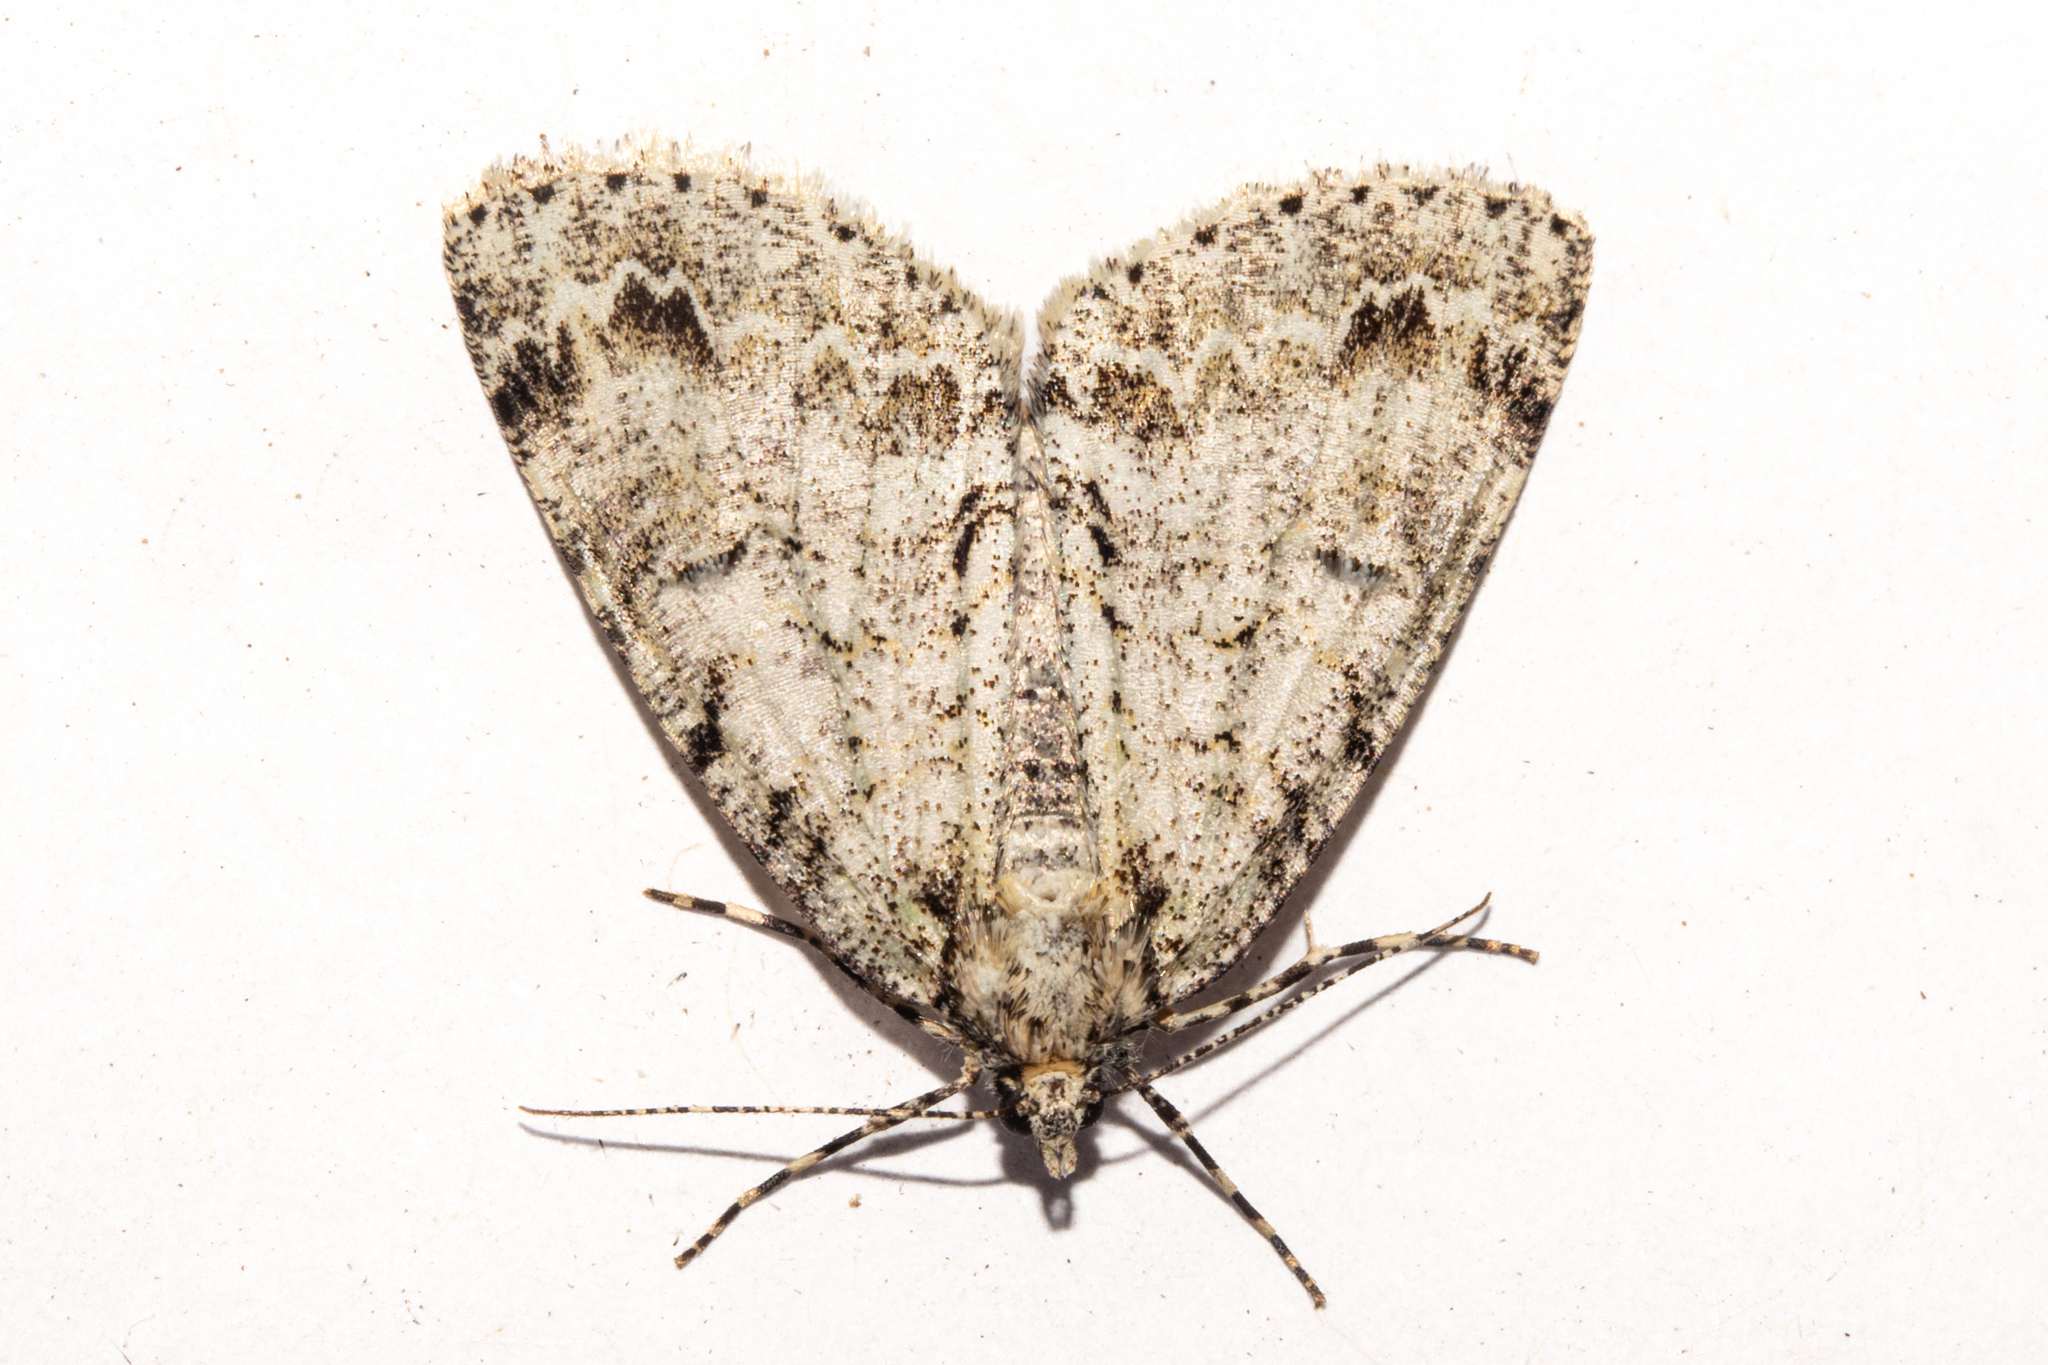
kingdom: Animalia
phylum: Arthropoda
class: Insecta
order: Lepidoptera
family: Geometridae
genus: Pseudocoremia
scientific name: Pseudocoremia suavis
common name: Common forest looper
